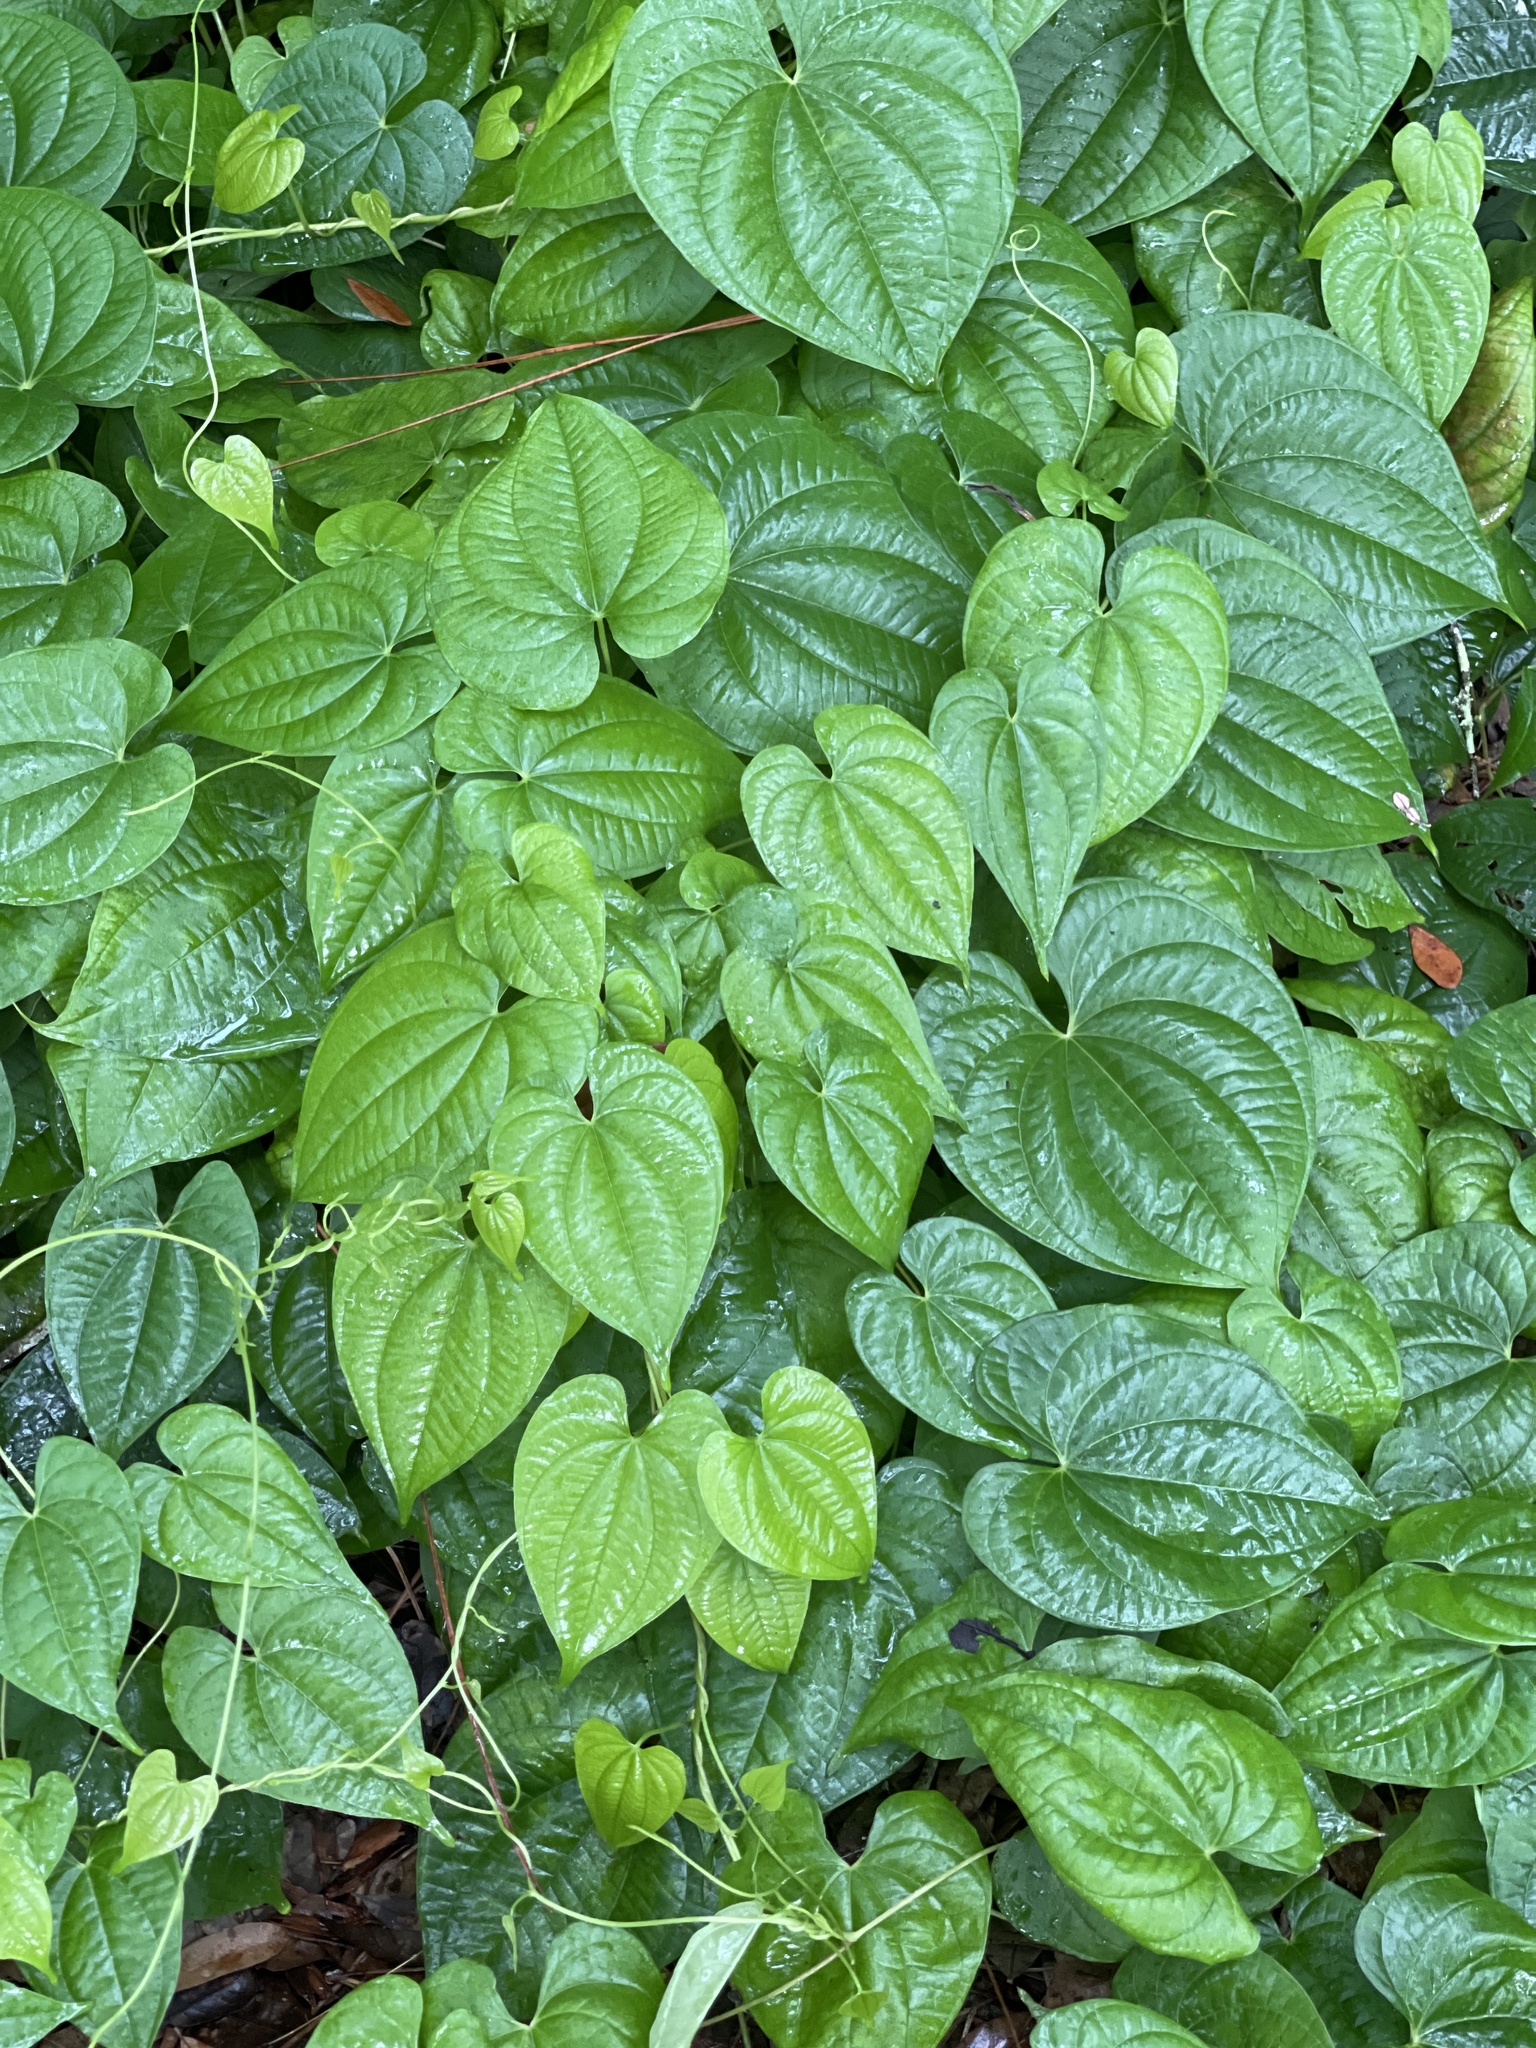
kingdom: Plantae
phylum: Tracheophyta
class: Liliopsida
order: Dioscoreales
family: Dioscoreaceae
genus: Dioscorea
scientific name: Dioscorea bulbifera
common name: Air yam
